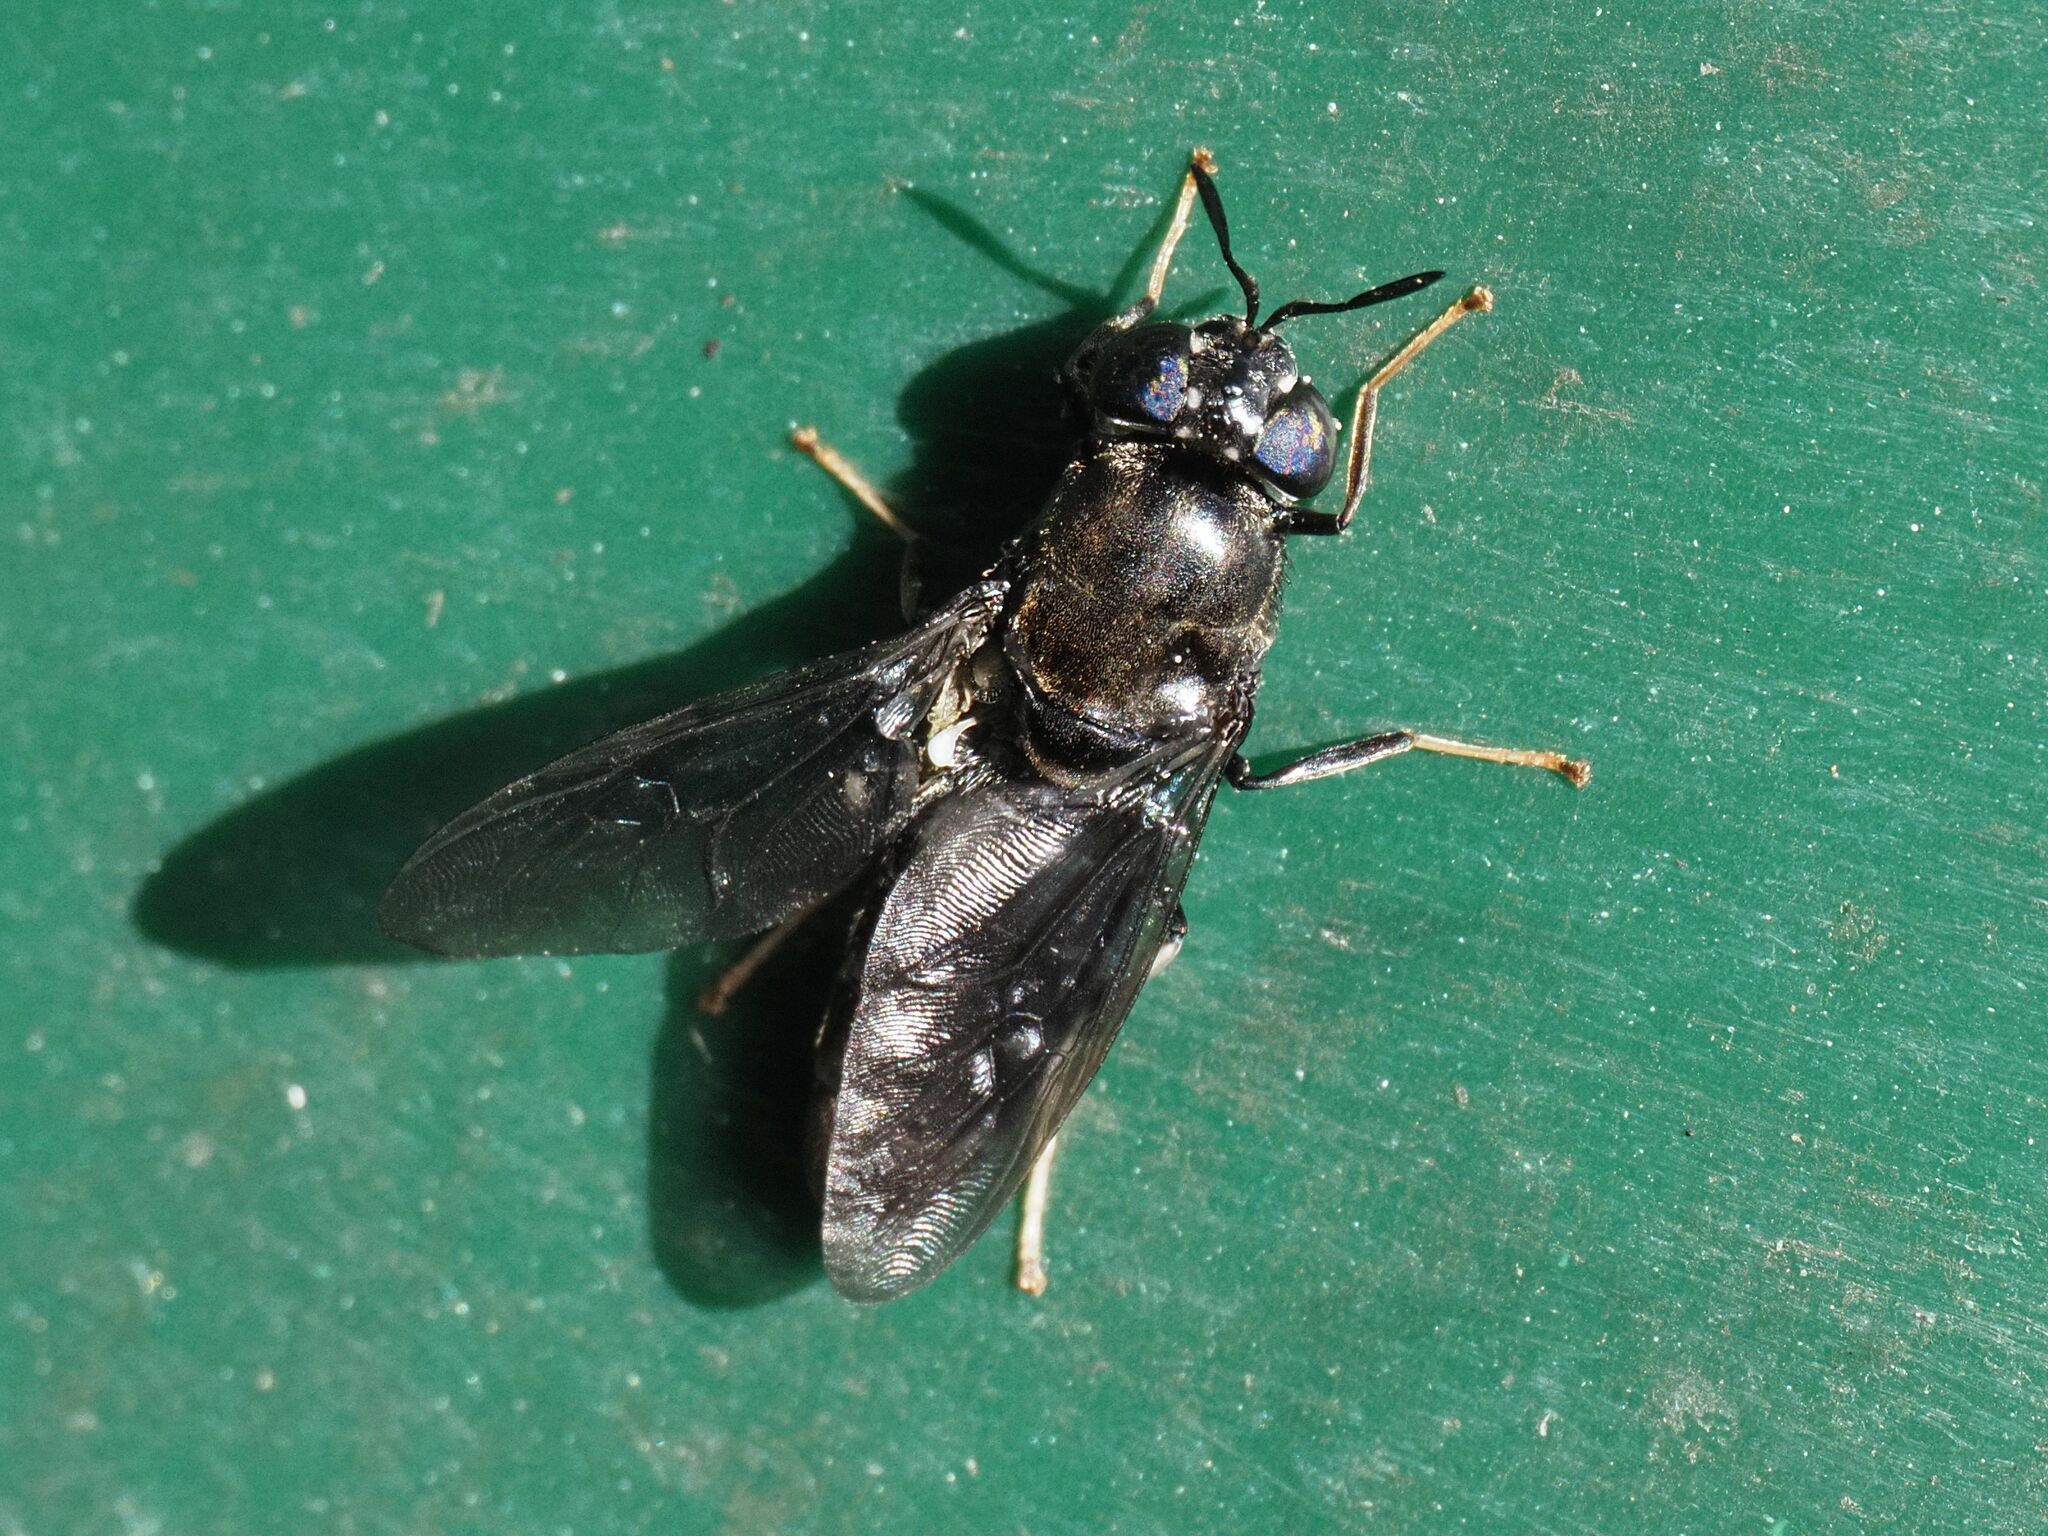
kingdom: Animalia
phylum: Arthropoda
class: Insecta
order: Diptera
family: Stratiomyidae
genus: Hermetia
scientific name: Hermetia illucens
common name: Black soldier fly
